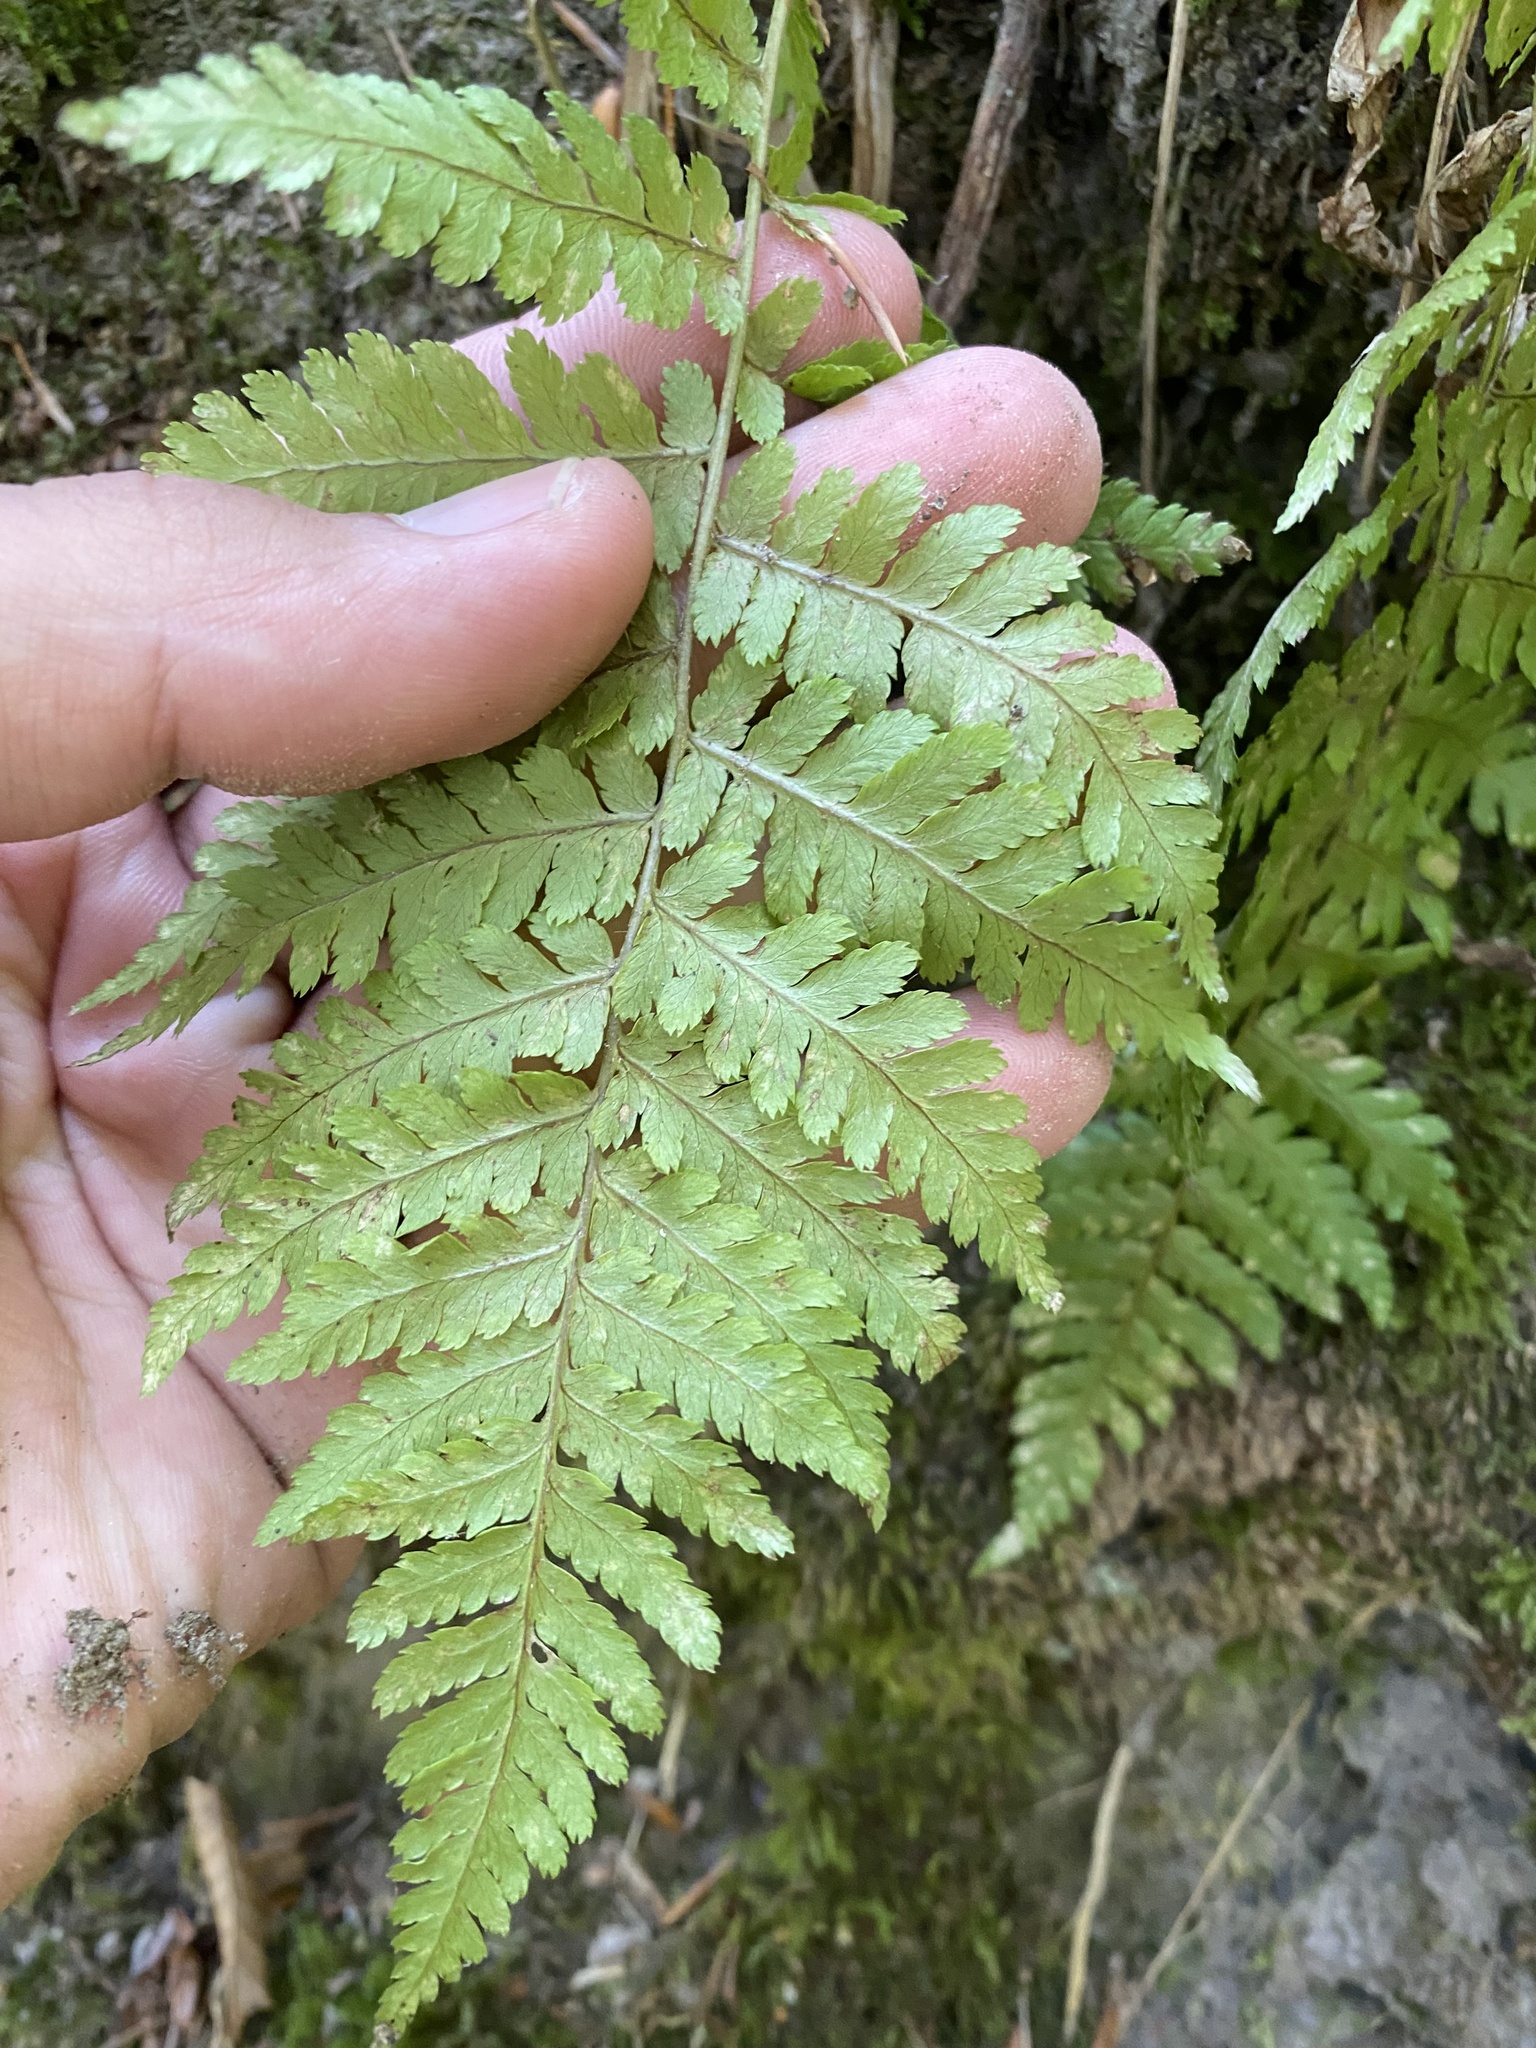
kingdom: Plantae
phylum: Tracheophyta
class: Polypodiopsida
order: Polypodiales
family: Dryopteridaceae
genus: Dryopteris
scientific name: Dryopteris filix-mas
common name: Male fern
